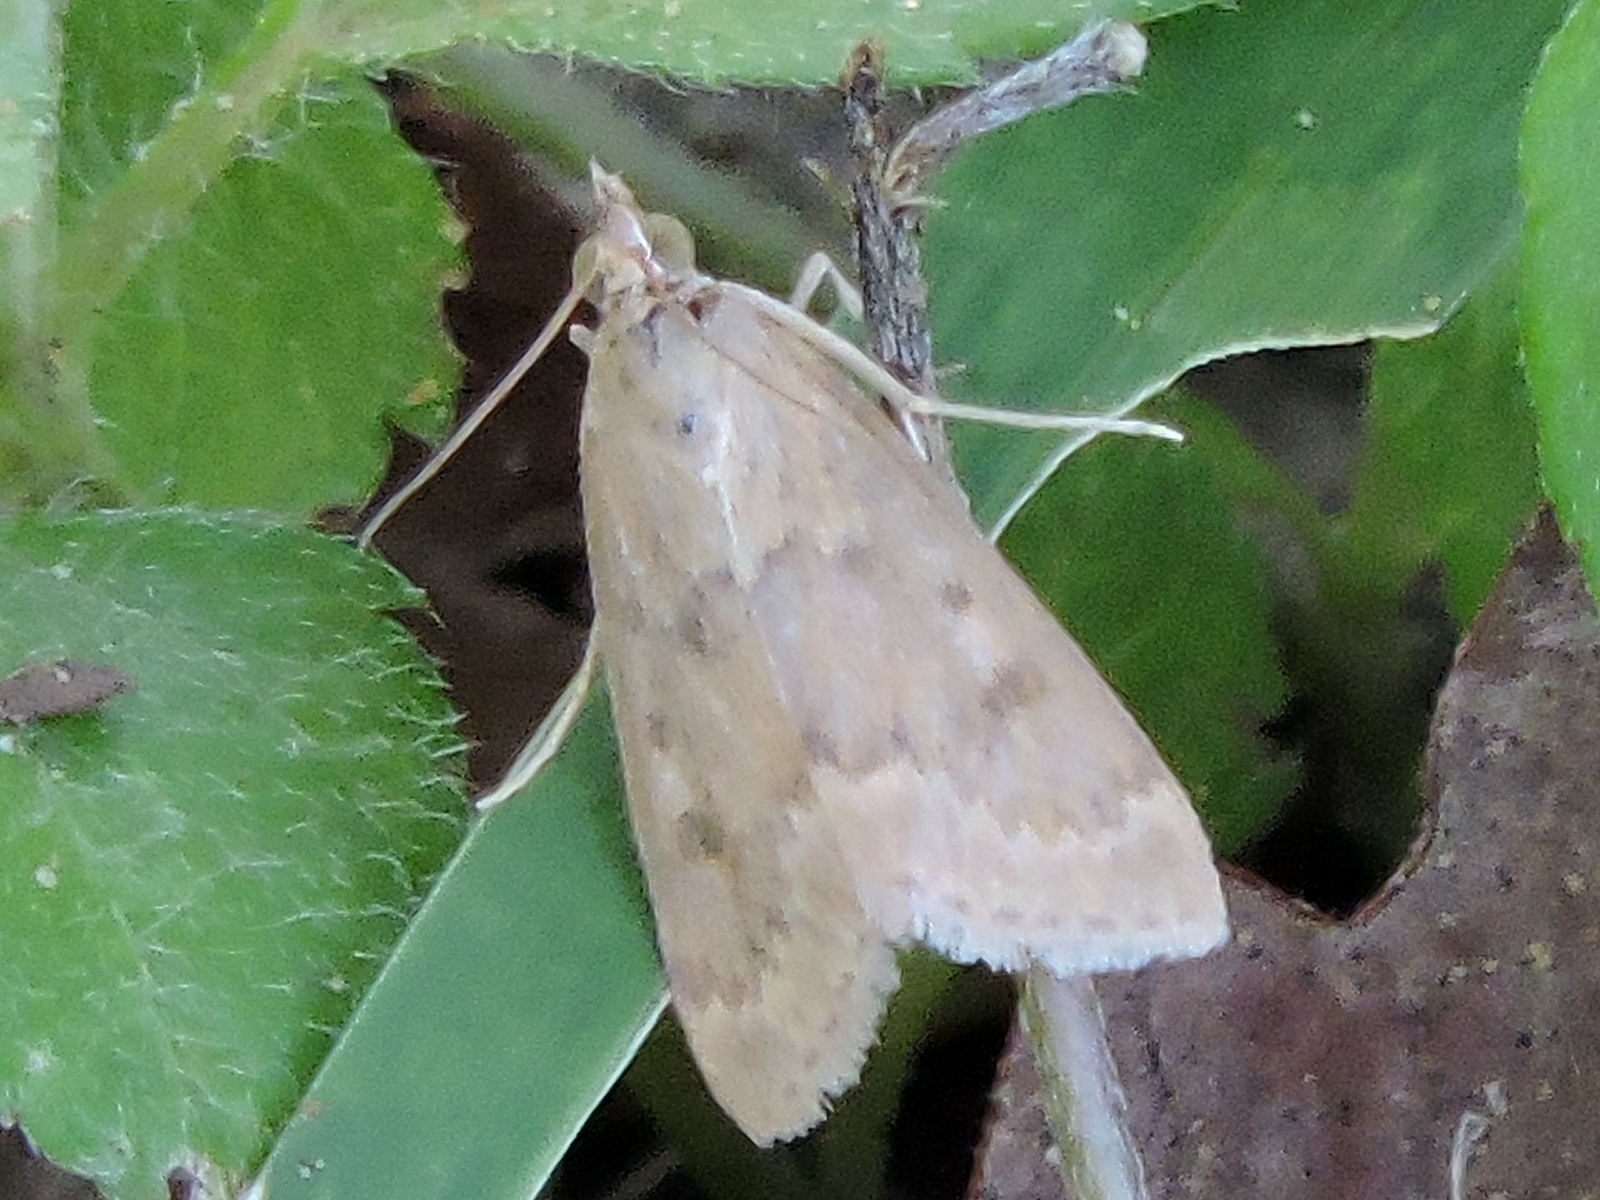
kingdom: Animalia
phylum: Arthropoda
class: Insecta
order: Lepidoptera
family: Crambidae
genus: Achyra
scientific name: Achyra rantalis
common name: Garden webworm
